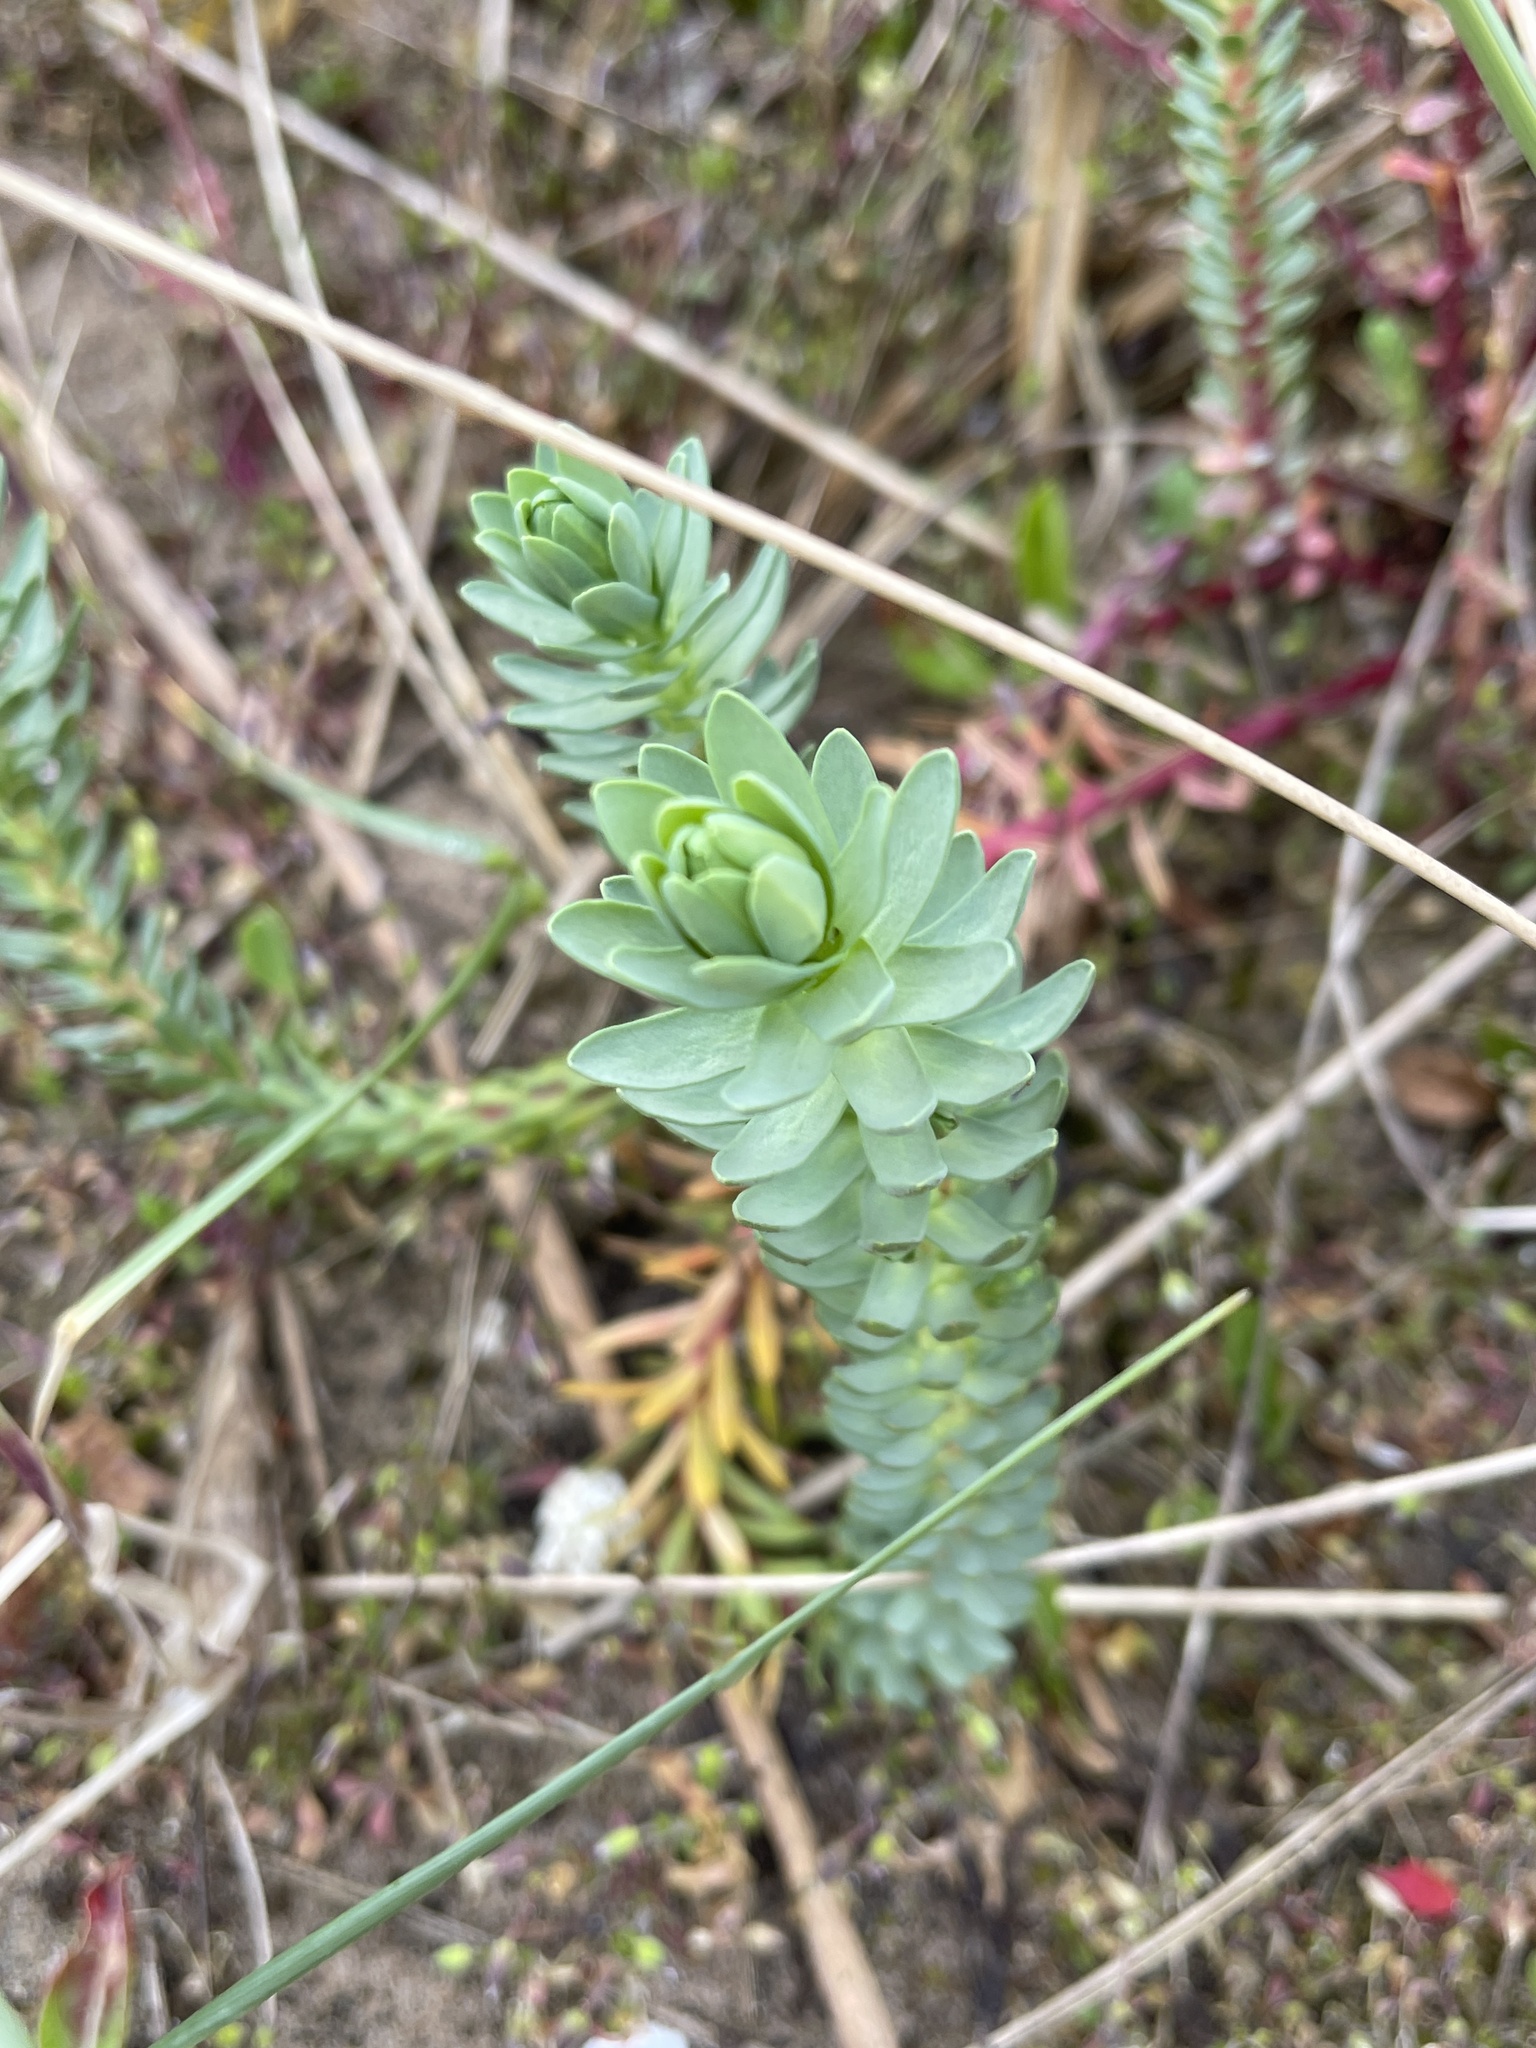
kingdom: Plantae
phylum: Tracheophyta
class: Magnoliopsida
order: Malpighiales
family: Euphorbiaceae
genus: Euphorbia
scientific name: Euphorbia paralias
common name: Sea spurge
